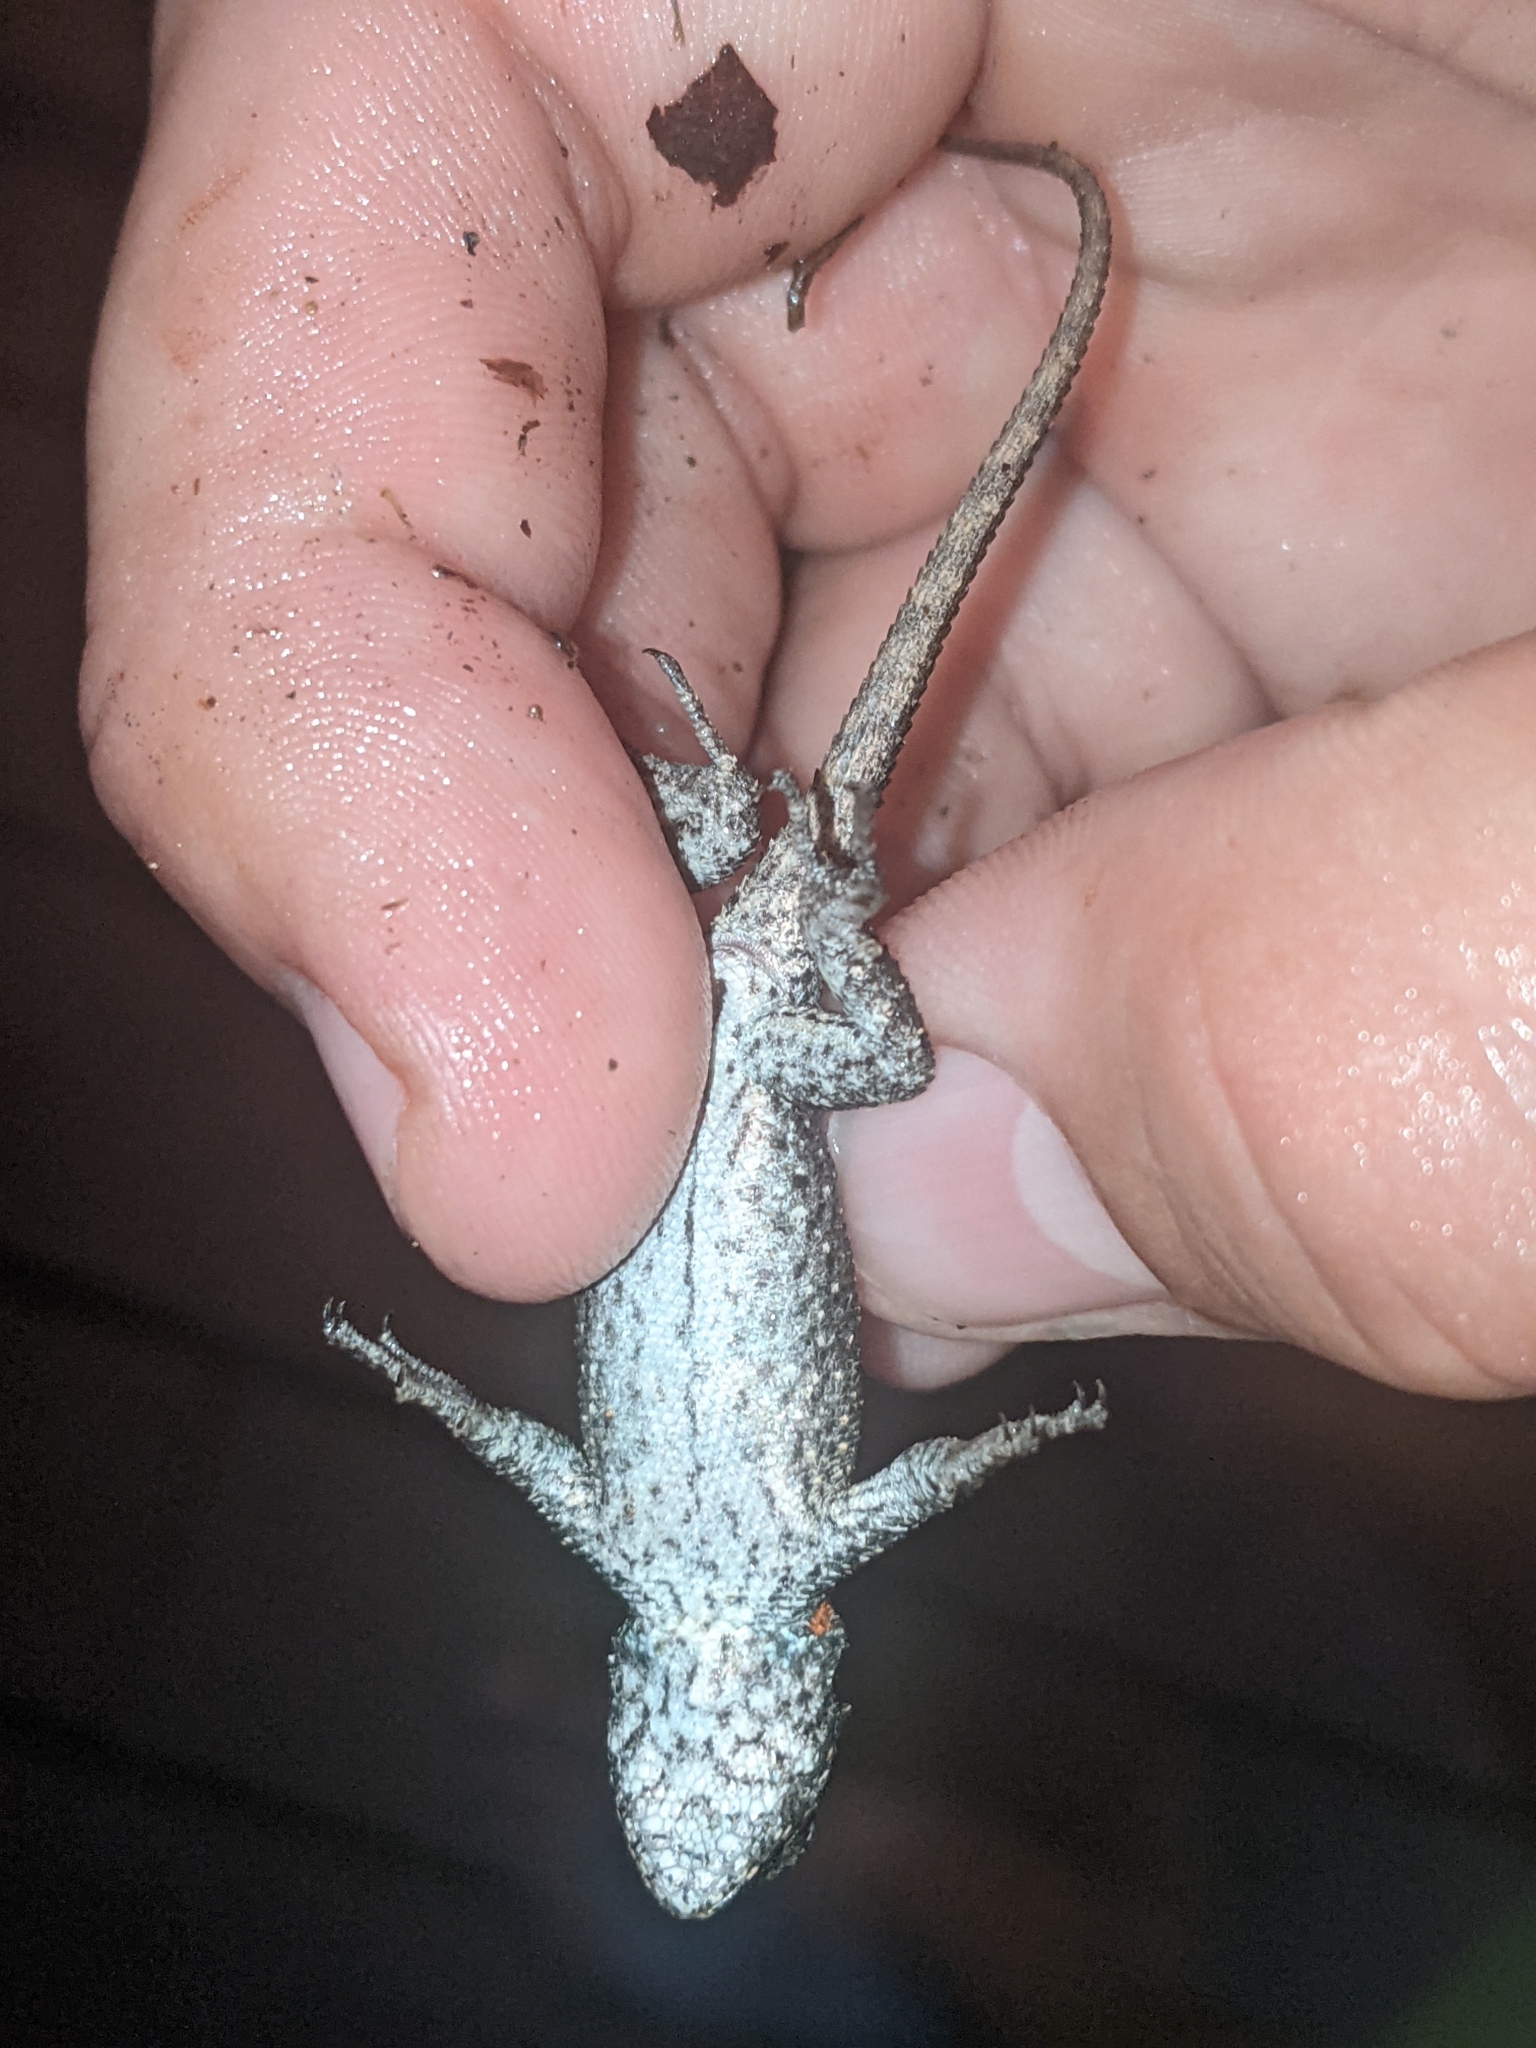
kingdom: Animalia
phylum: Chordata
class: Squamata
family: Phrynosomatidae
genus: Sceloporus
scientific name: Sceloporus undulatus
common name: Eastern fence lizard
